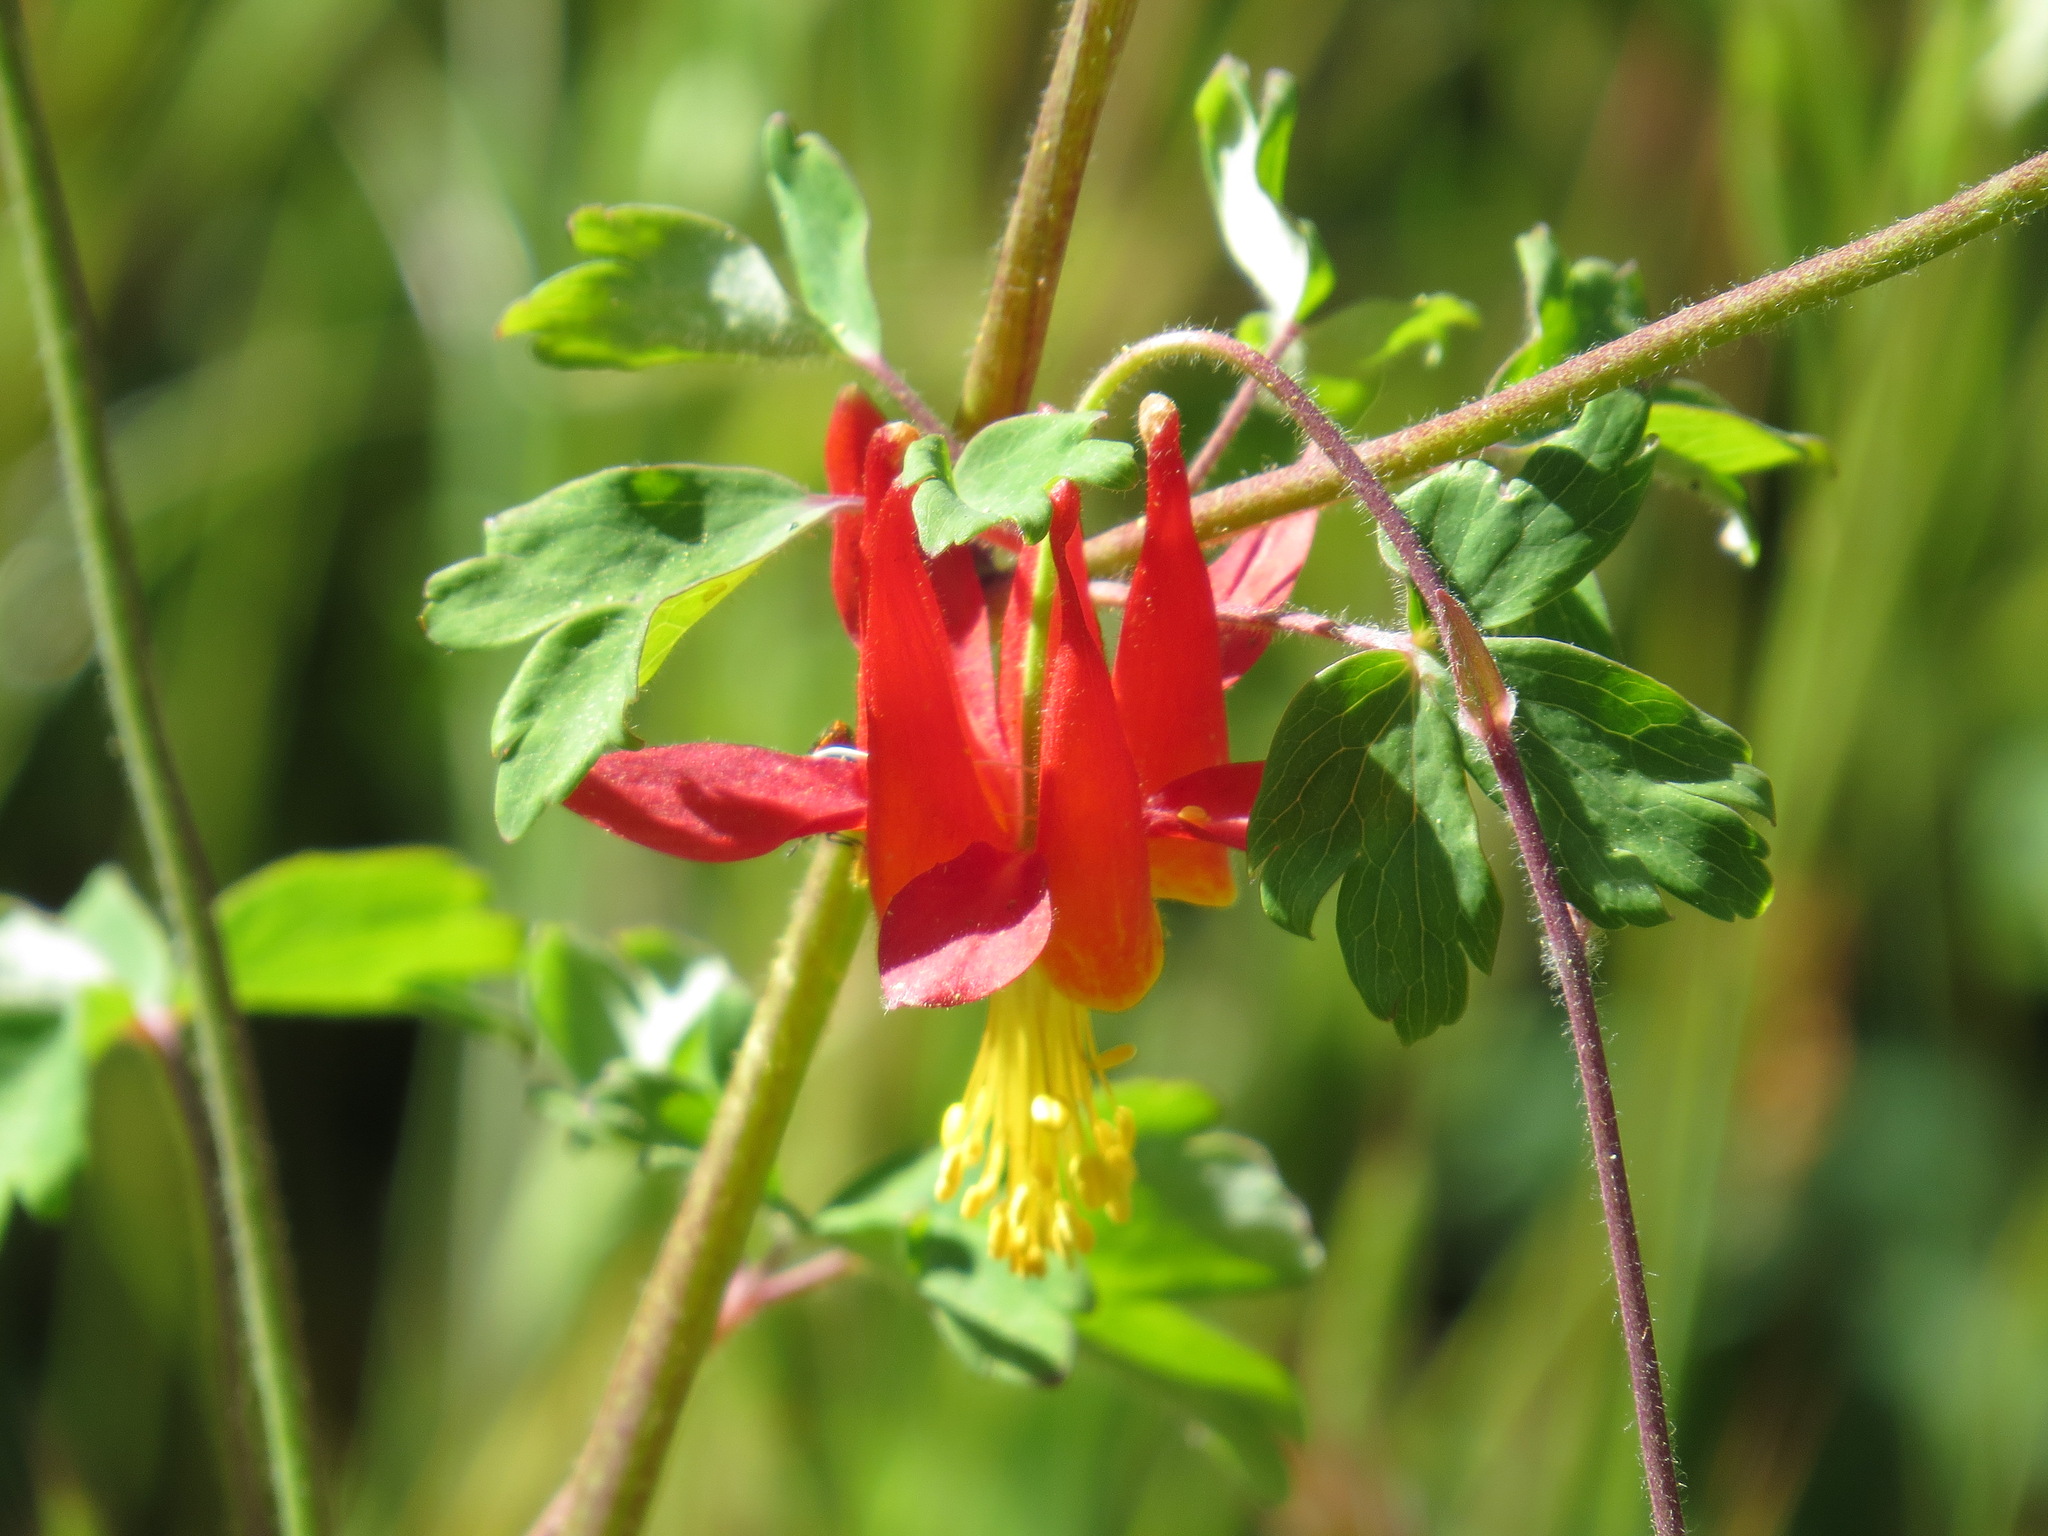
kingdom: Plantae
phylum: Tracheophyta
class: Magnoliopsida
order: Ranunculales
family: Ranunculaceae
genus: Aquilegia
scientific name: Aquilegia formosa
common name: Sitka columbine
